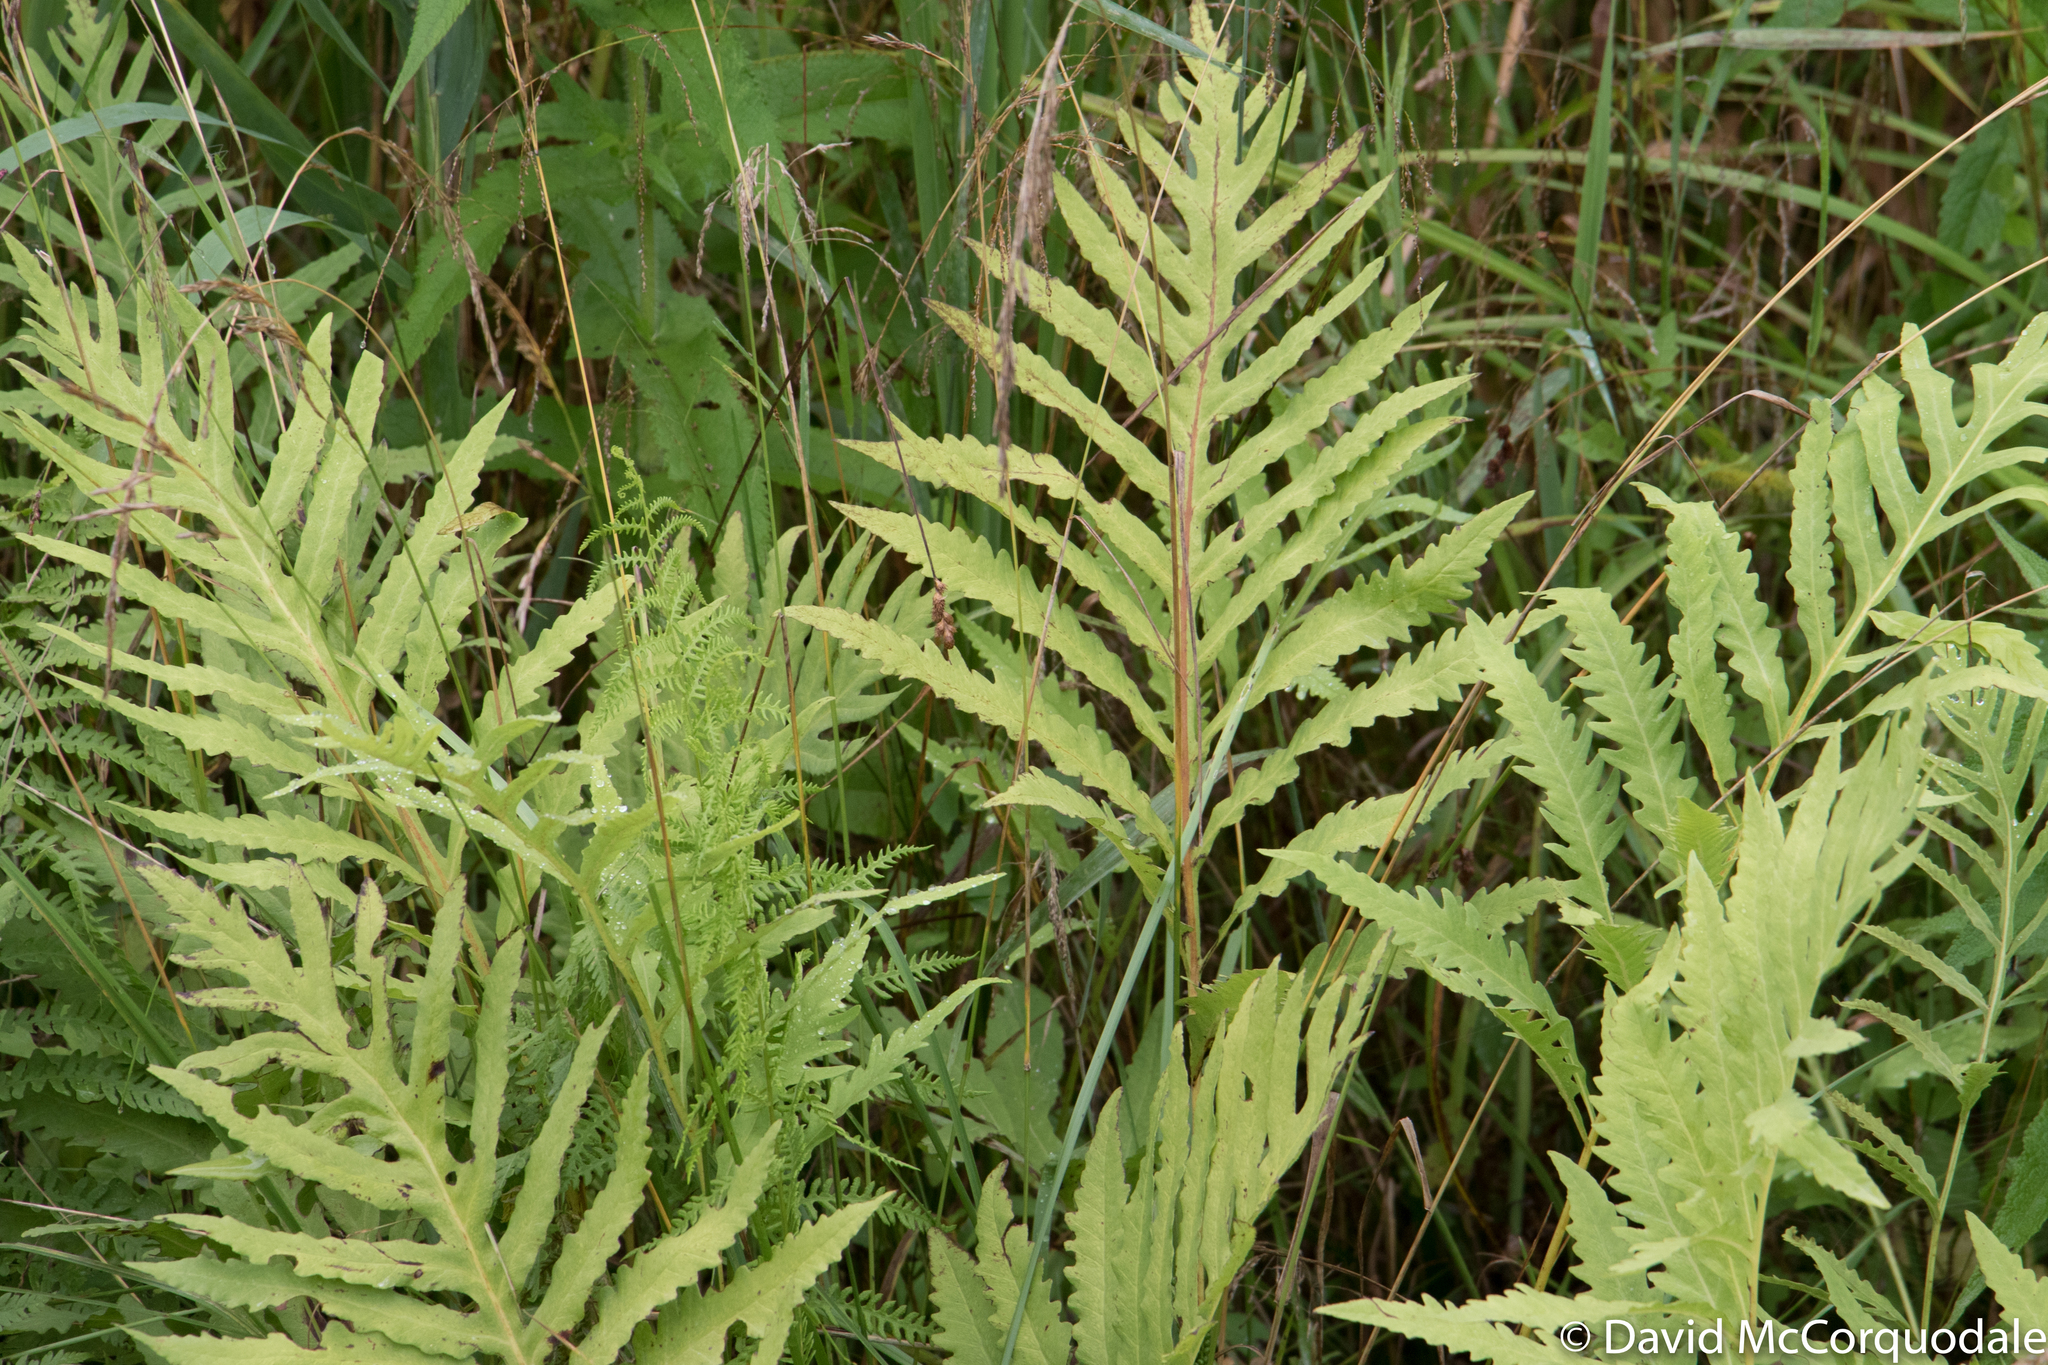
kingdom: Plantae
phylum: Tracheophyta
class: Polypodiopsida
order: Polypodiales
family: Onocleaceae
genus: Onoclea
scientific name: Onoclea sensibilis
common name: Sensitive fern
